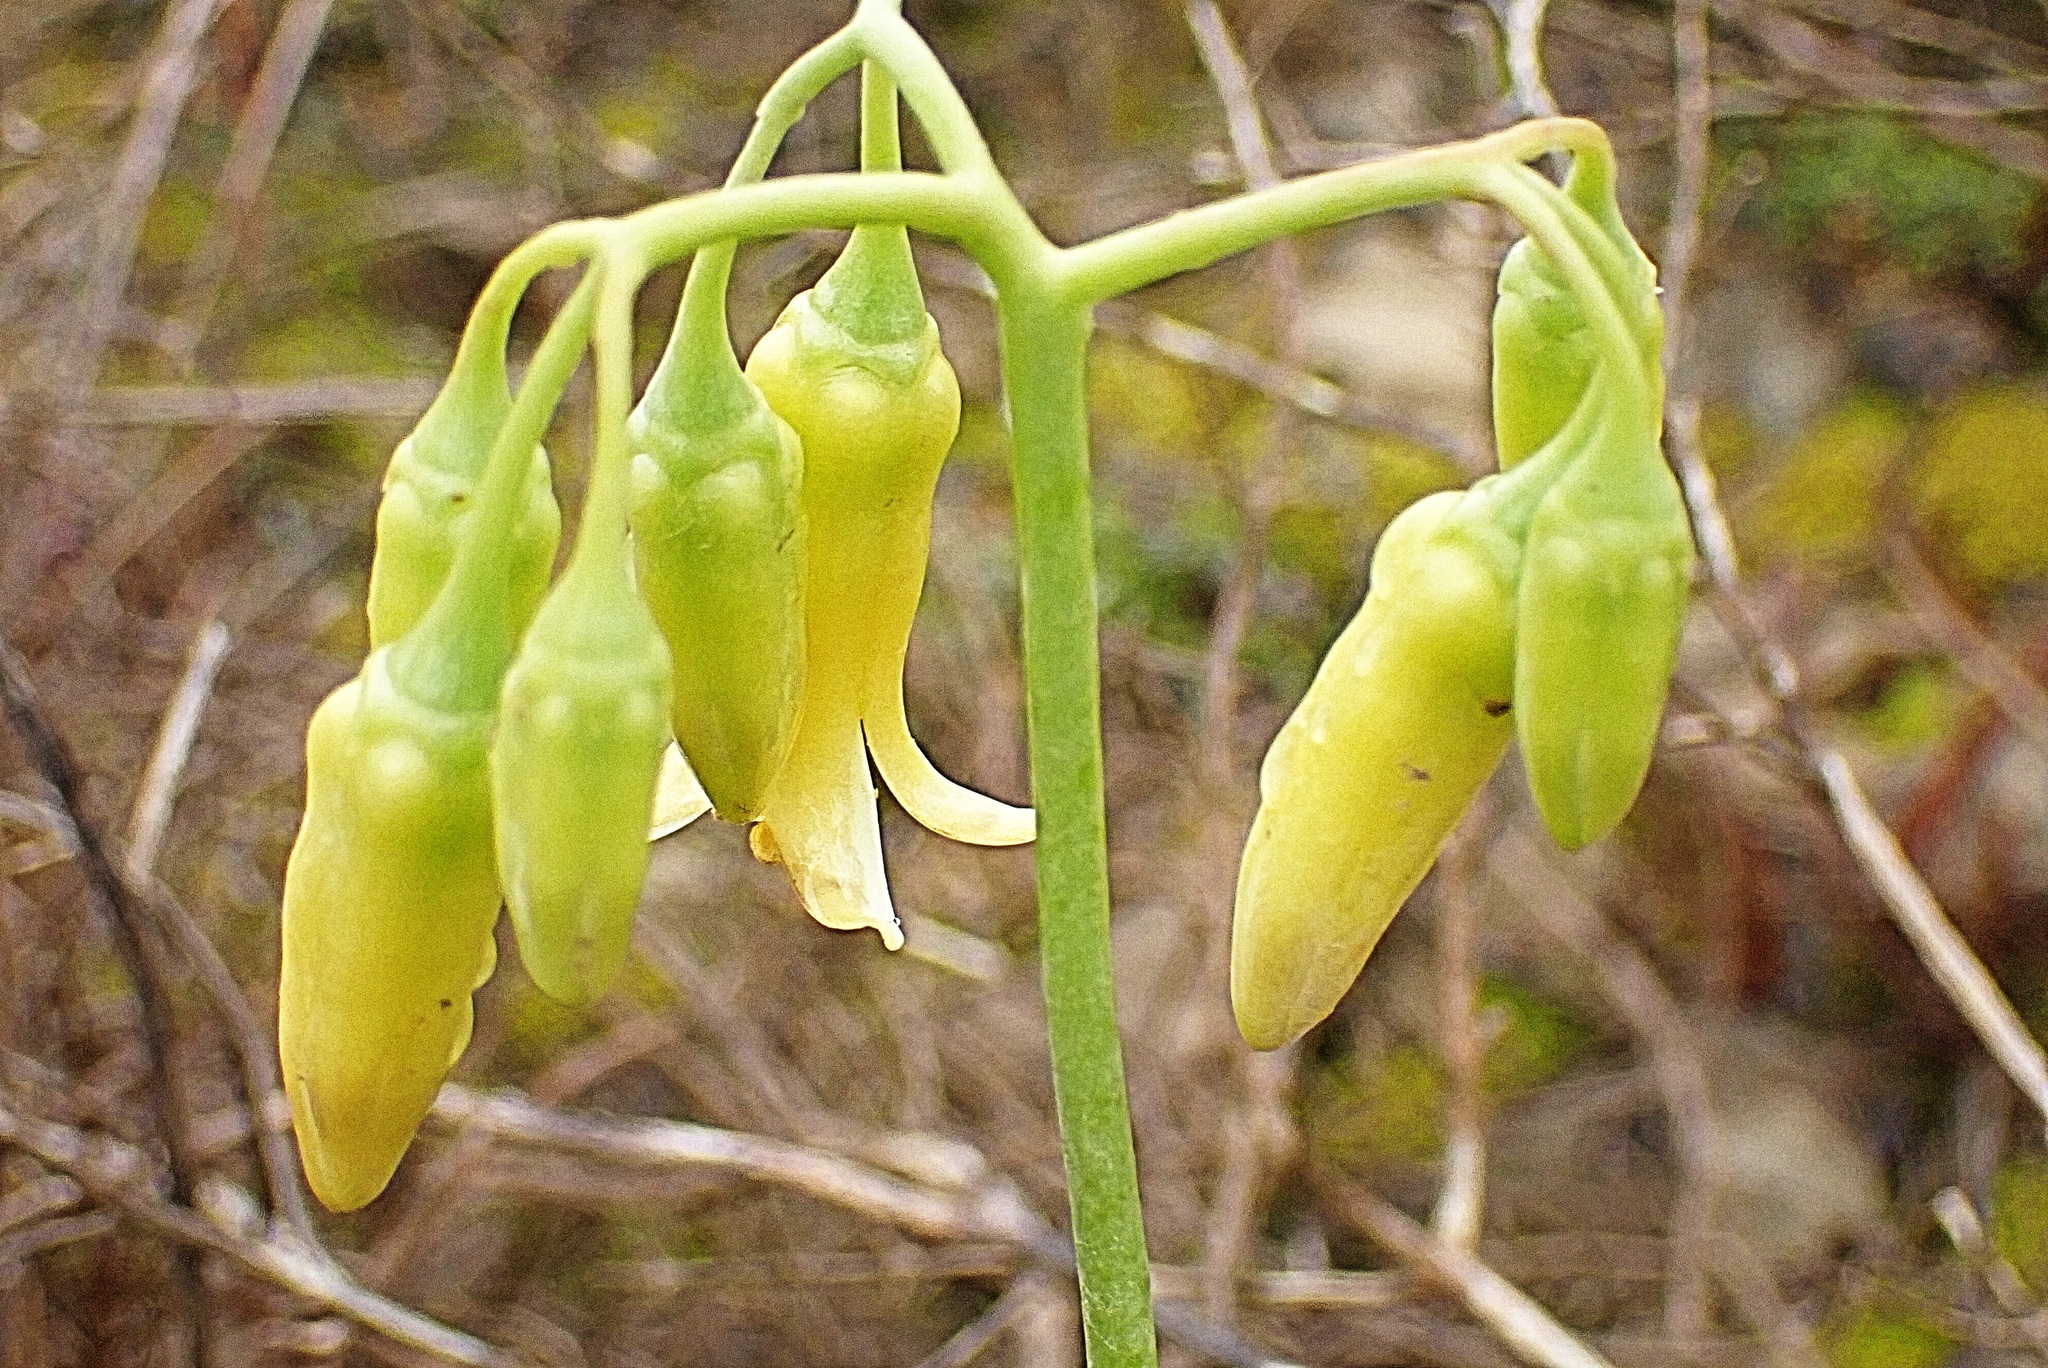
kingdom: Plantae
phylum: Tracheophyta
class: Magnoliopsida
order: Saxifragales
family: Crassulaceae
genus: Cotyledon
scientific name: Cotyledon xanthantha
